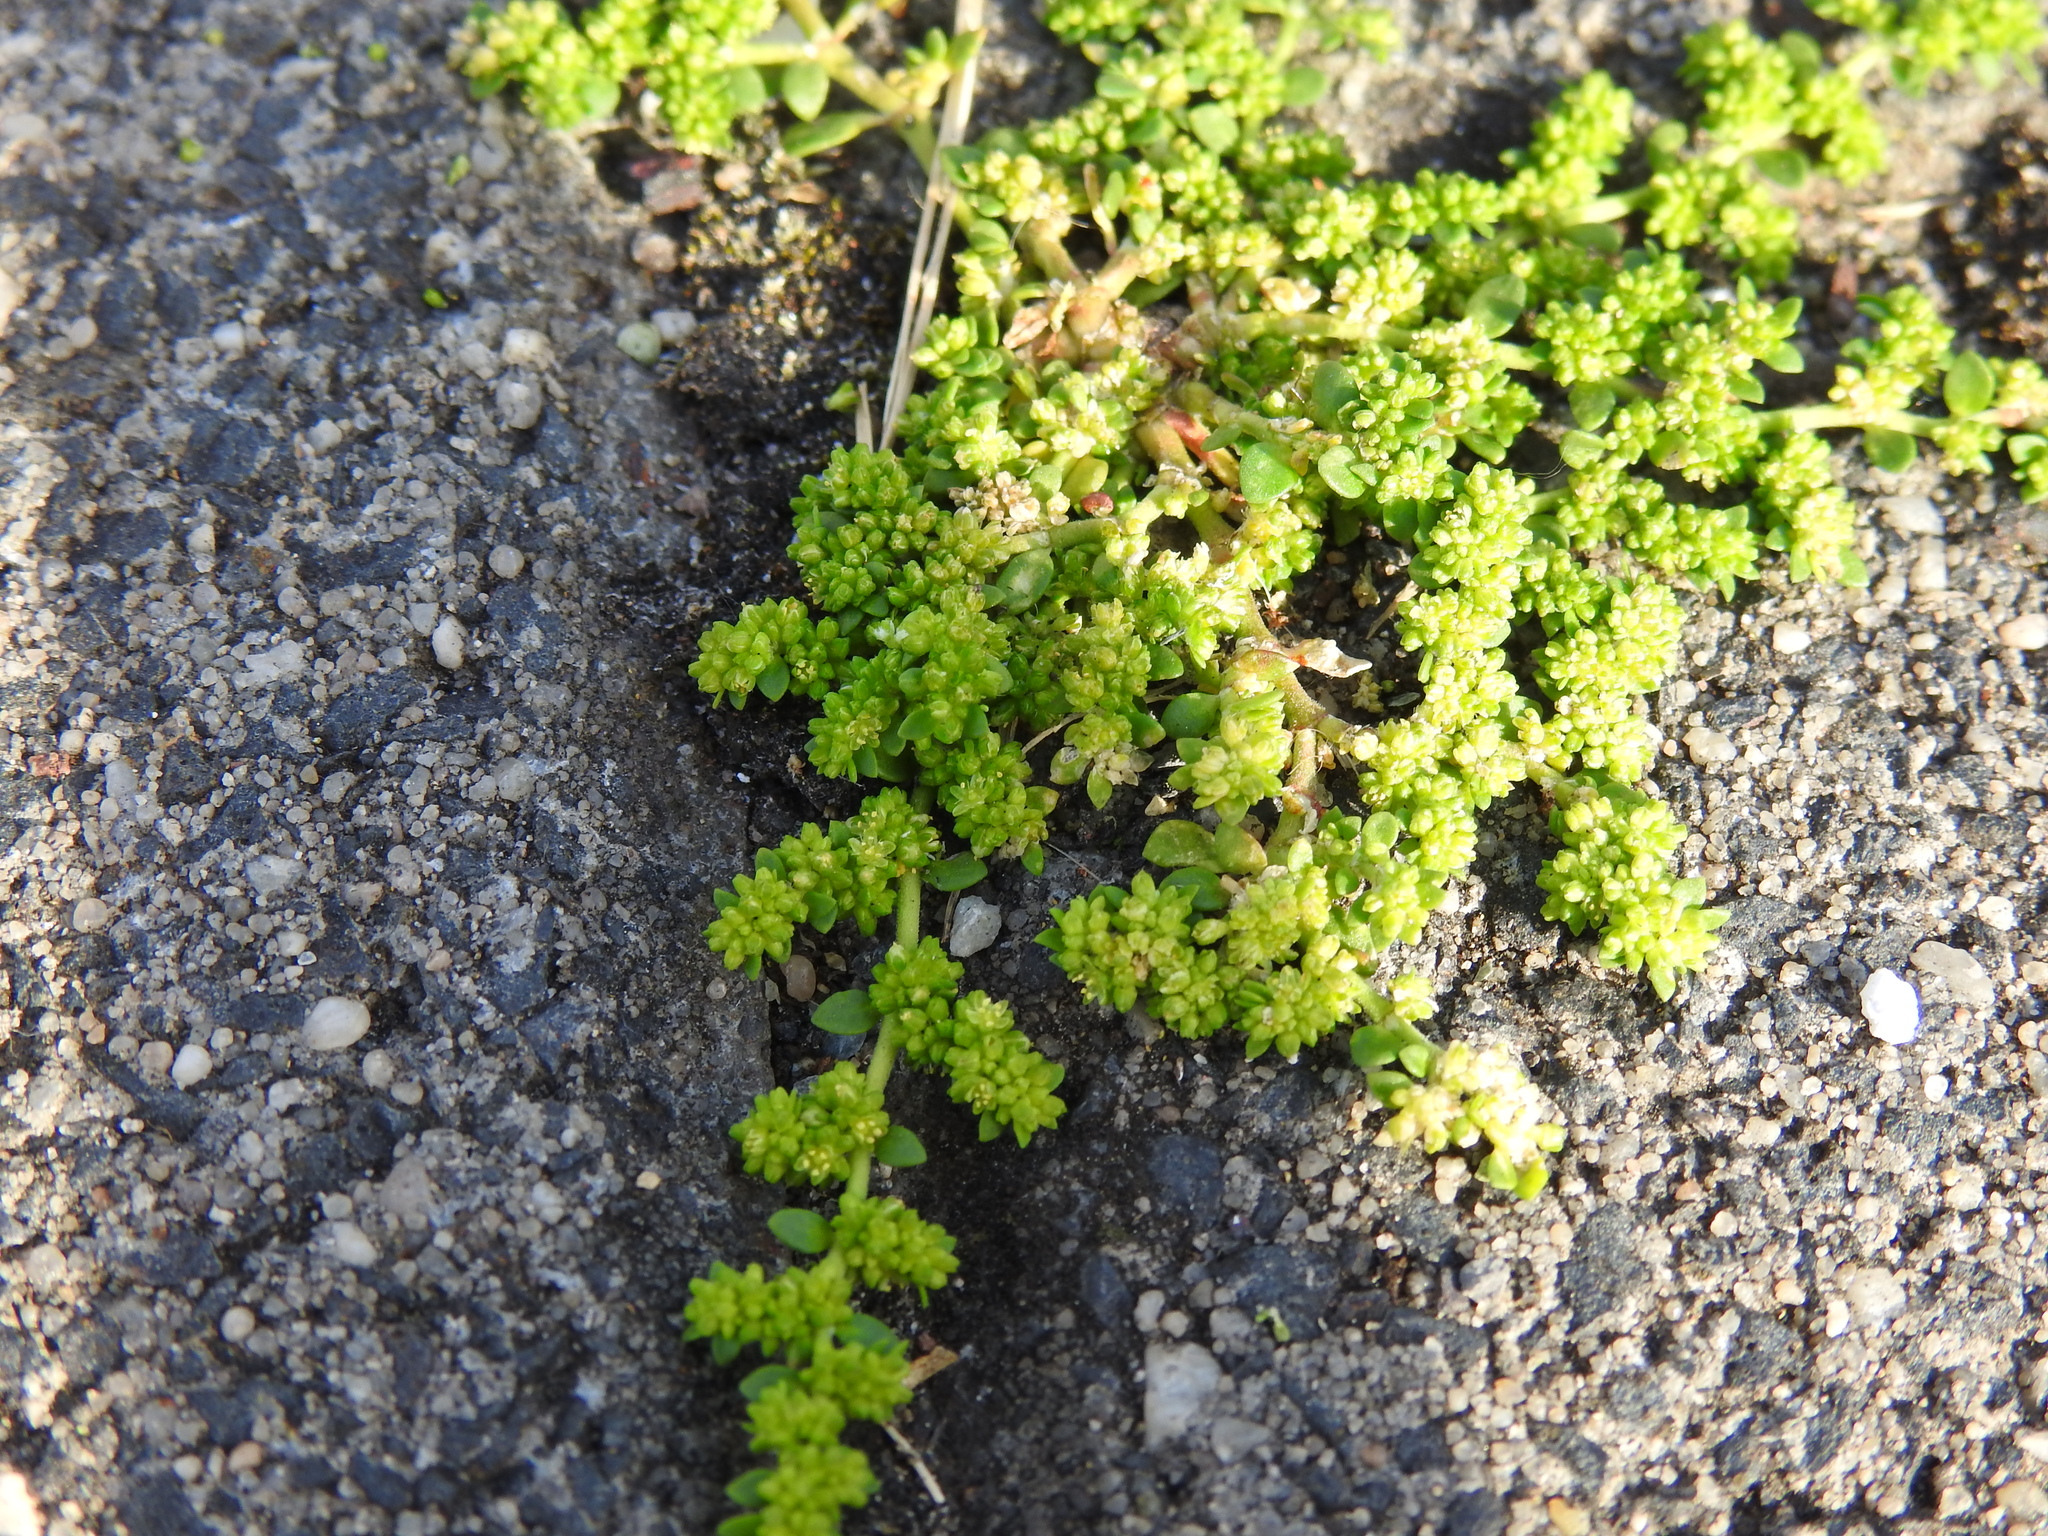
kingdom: Plantae
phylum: Tracheophyta
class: Magnoliopsida
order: Caryophyllales
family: Caryophyllaceae
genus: Herniaria
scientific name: Herniaria glabra
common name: Smooth rupturewort
